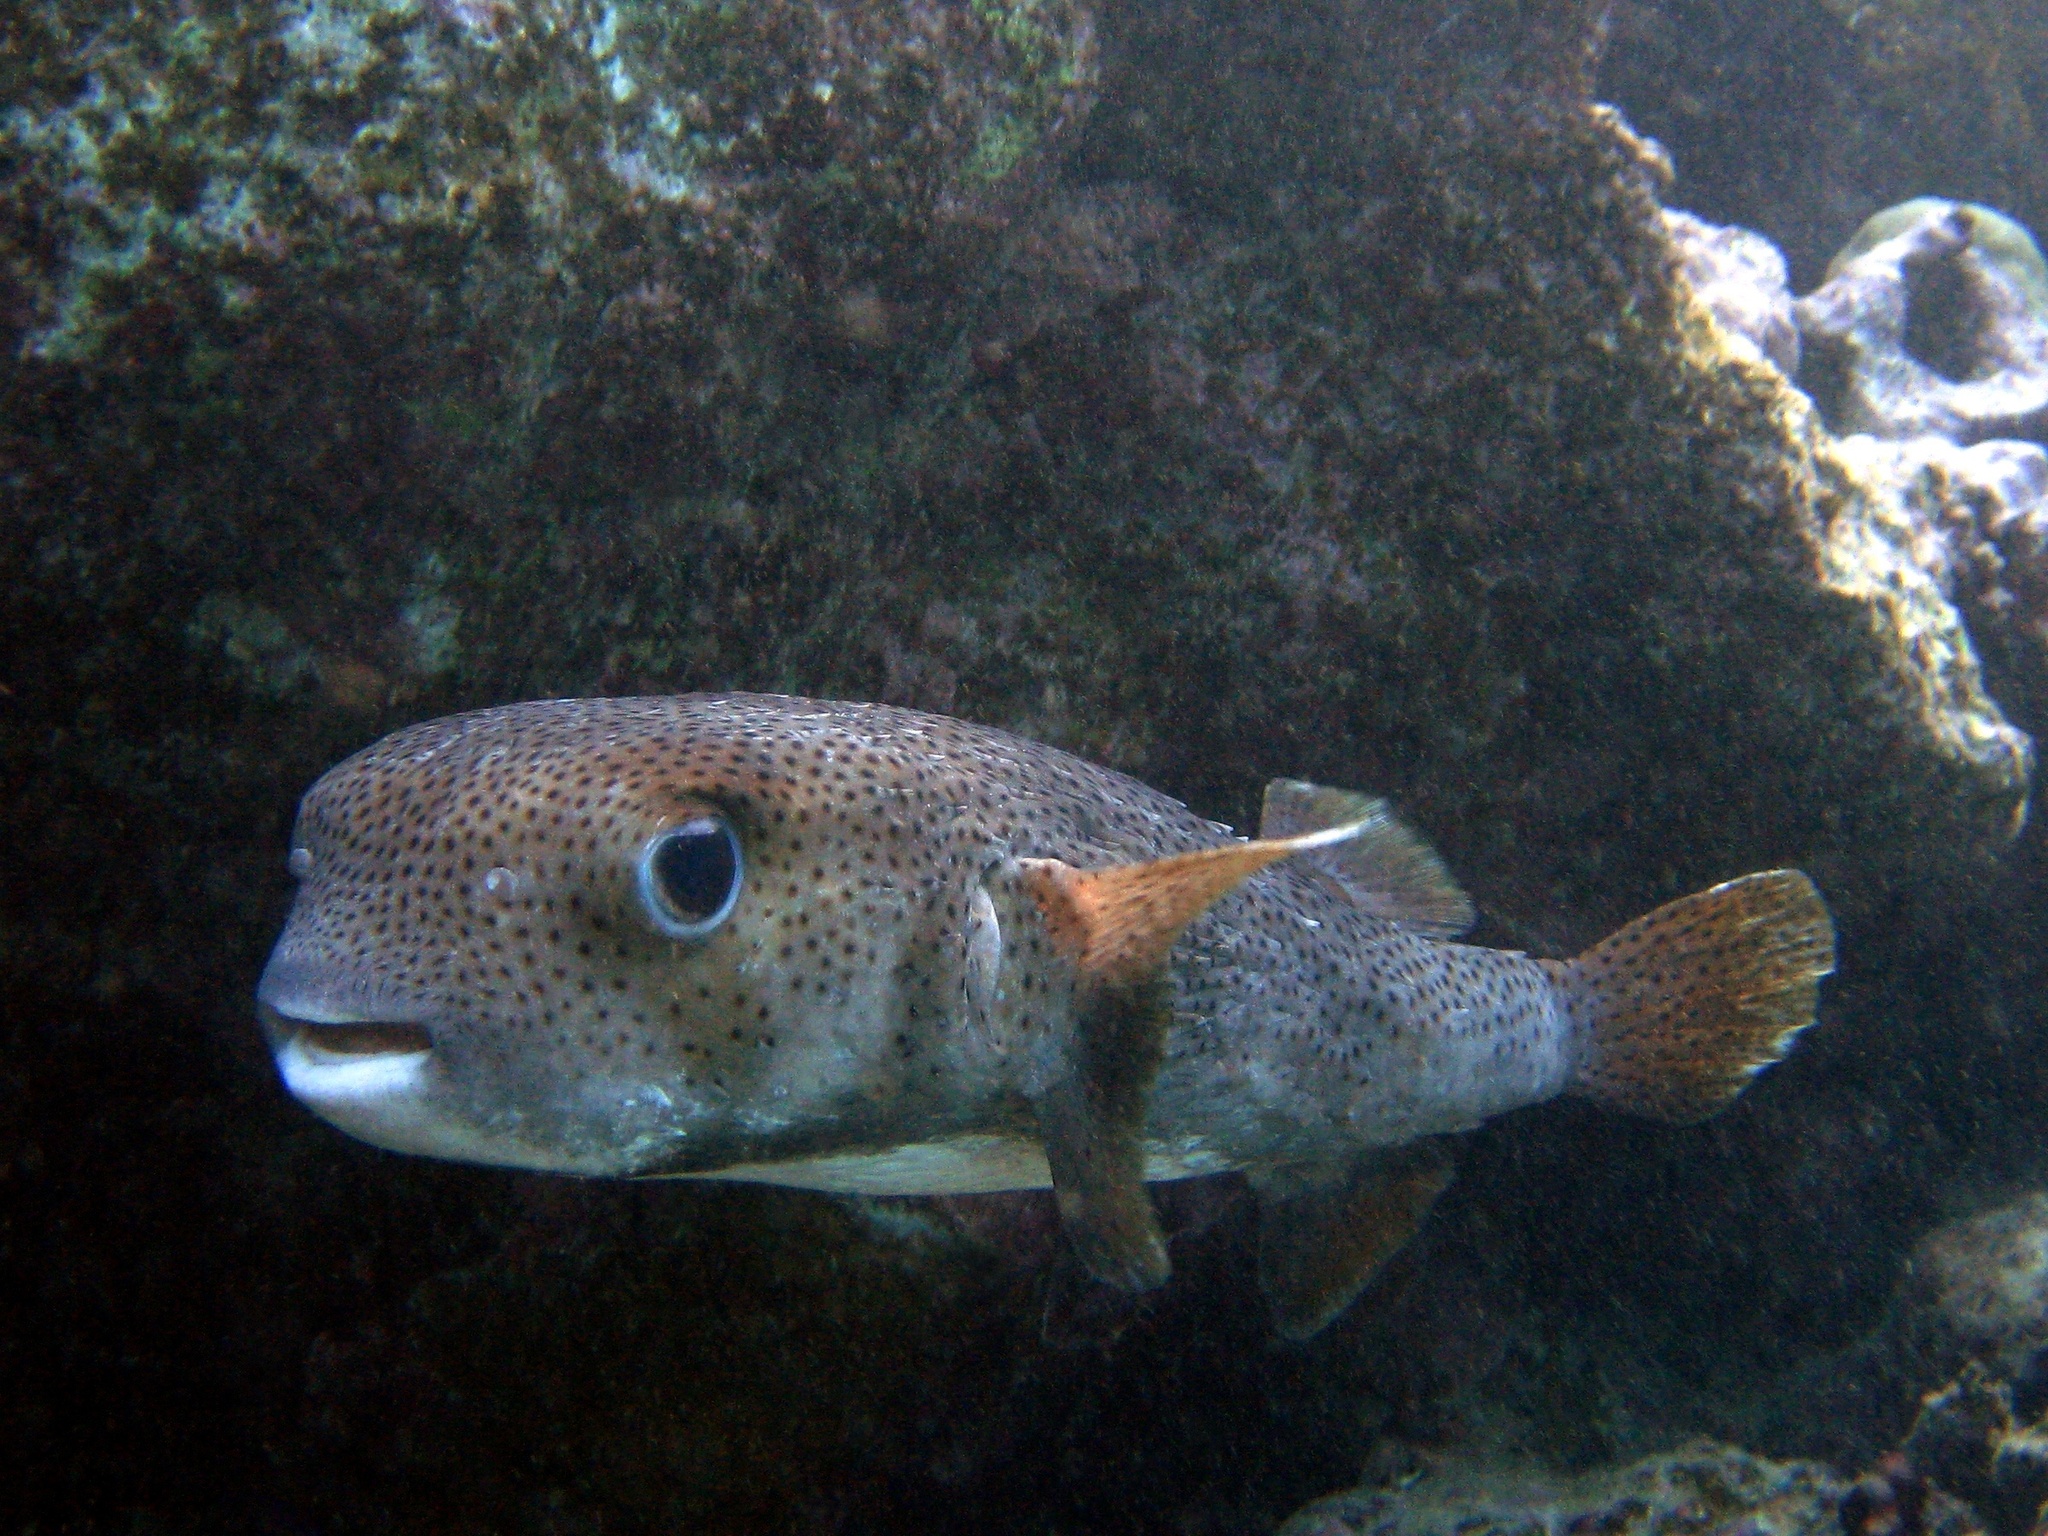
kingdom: Animalia
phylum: Chordata
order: Tetraodontiformes
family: Diodontidae
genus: Diodon
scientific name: Diodon hystrix
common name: Giant porcupinefish
